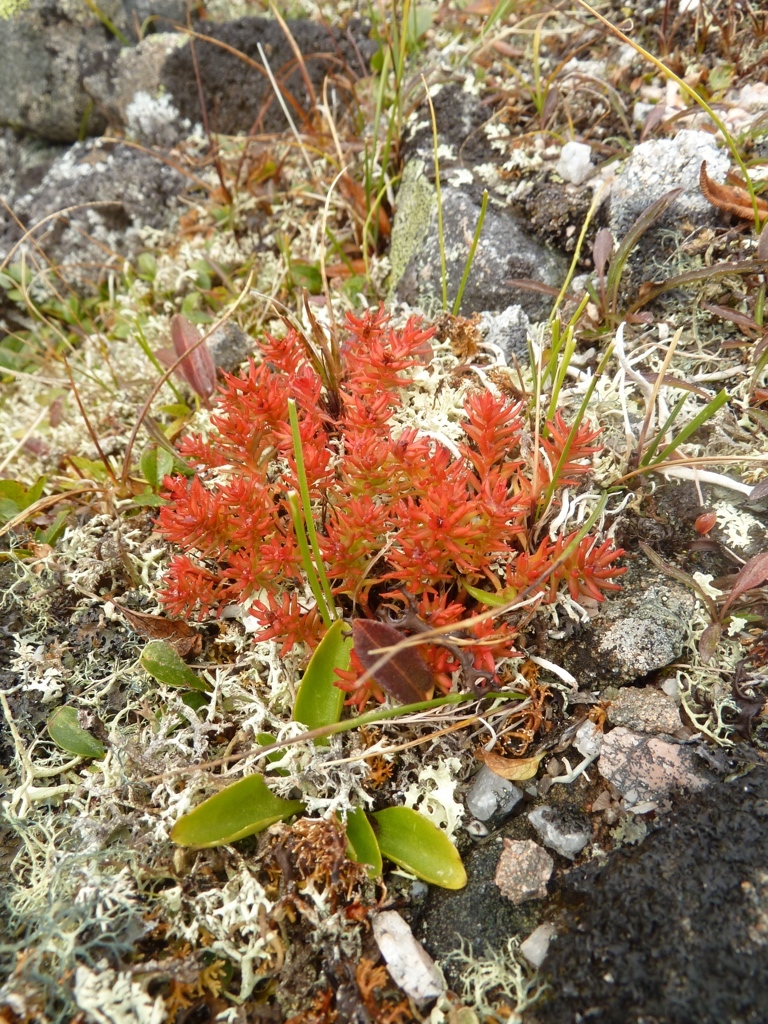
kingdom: Plantae
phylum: Tracheophyta
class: Magnoliopsida
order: Saxifragales
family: Crassulaceae
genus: Rhodiola
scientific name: Rhodiola quadrifida
